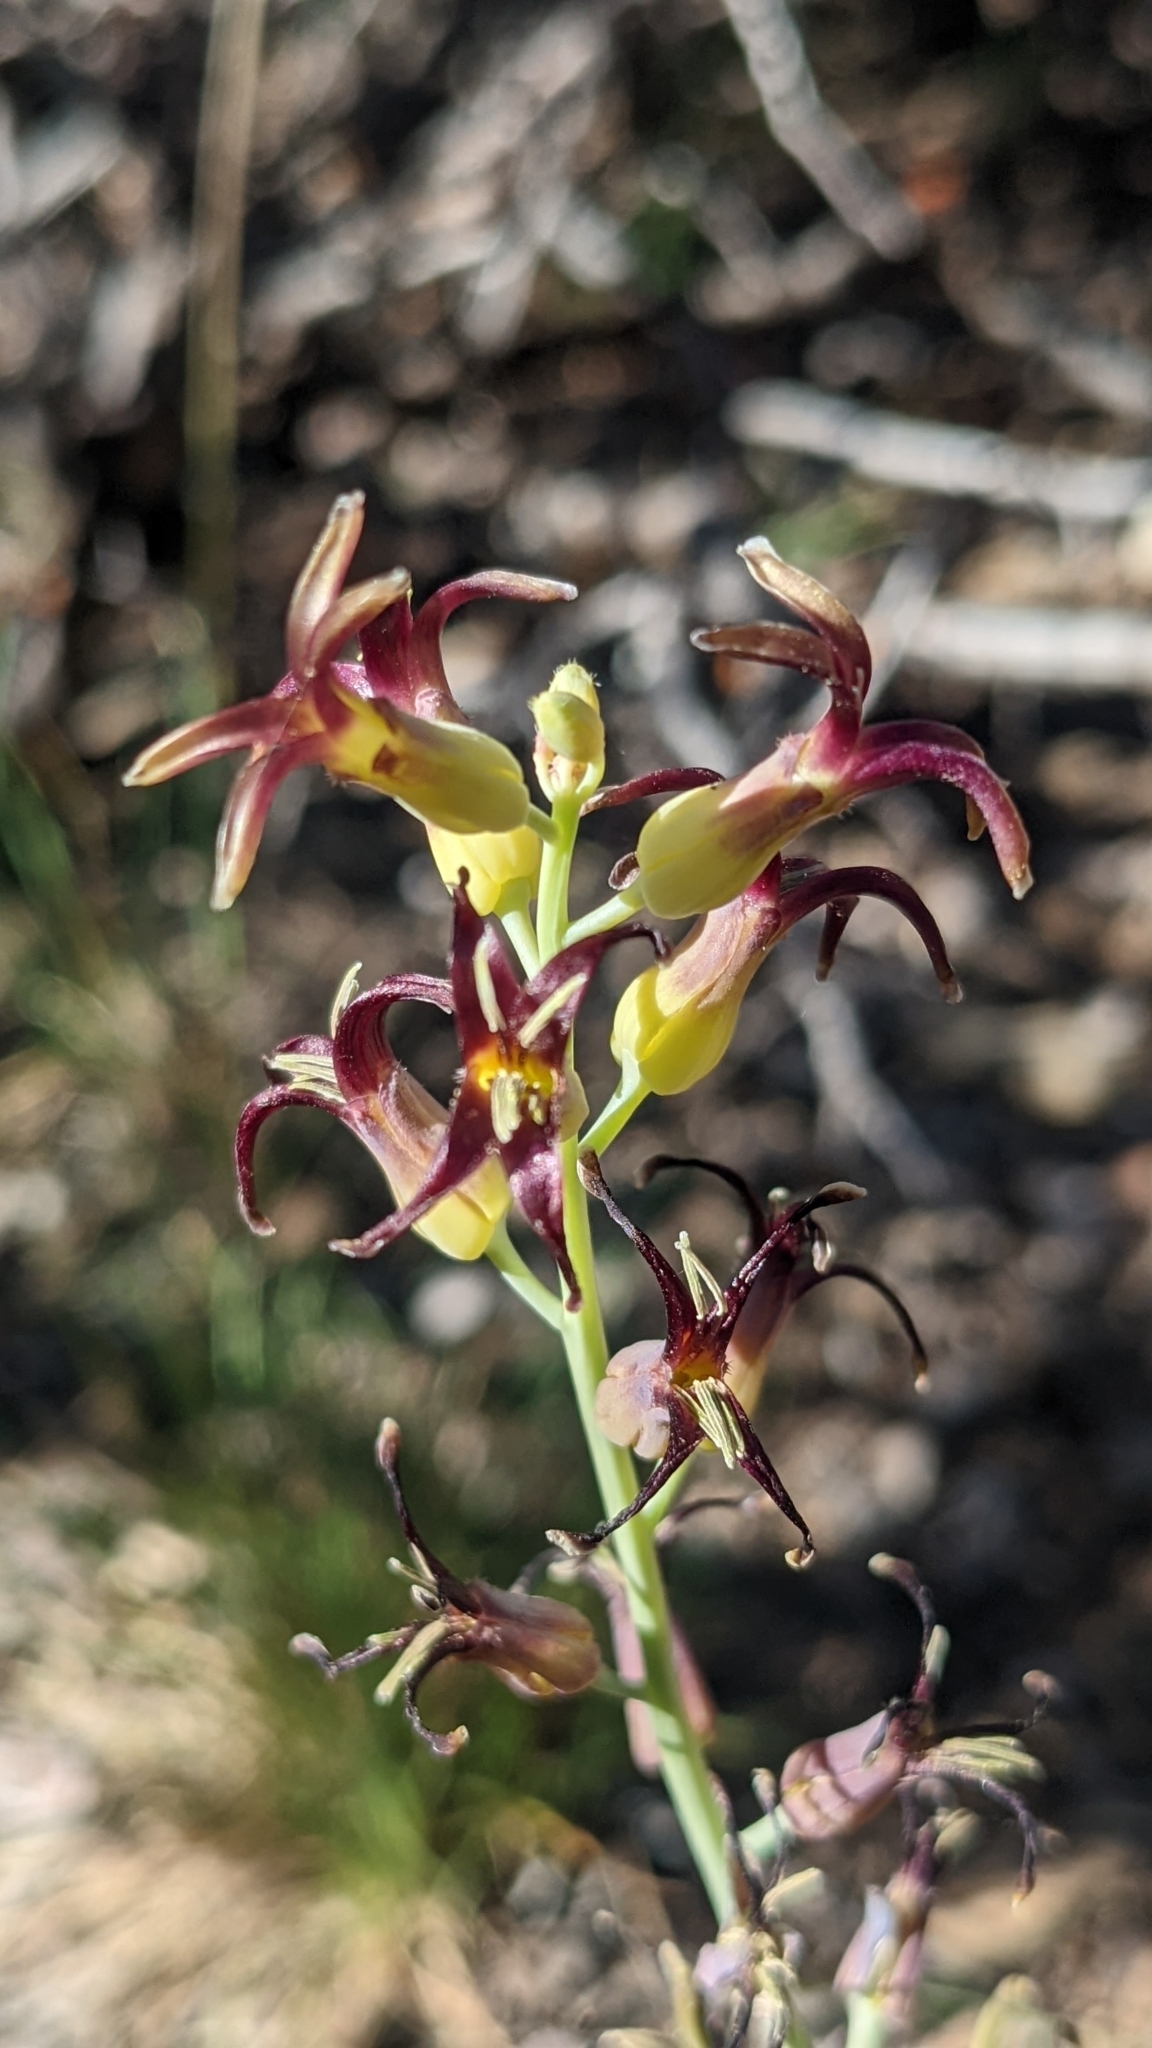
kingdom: Plantae
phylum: Tracheophyta
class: Magnoliopsida
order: Brassicales
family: Brassicaceae
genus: Streptanthus
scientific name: Streptanthus cordatus
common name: Heart-leaf jewel-flower
